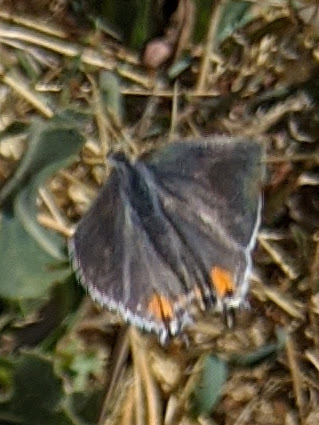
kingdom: Animalia
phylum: Arthropoda
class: Insecta
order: Lepidoptera
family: Lycaenidae
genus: Strymon
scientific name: Strymon melinus
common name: Gray hairstreak
